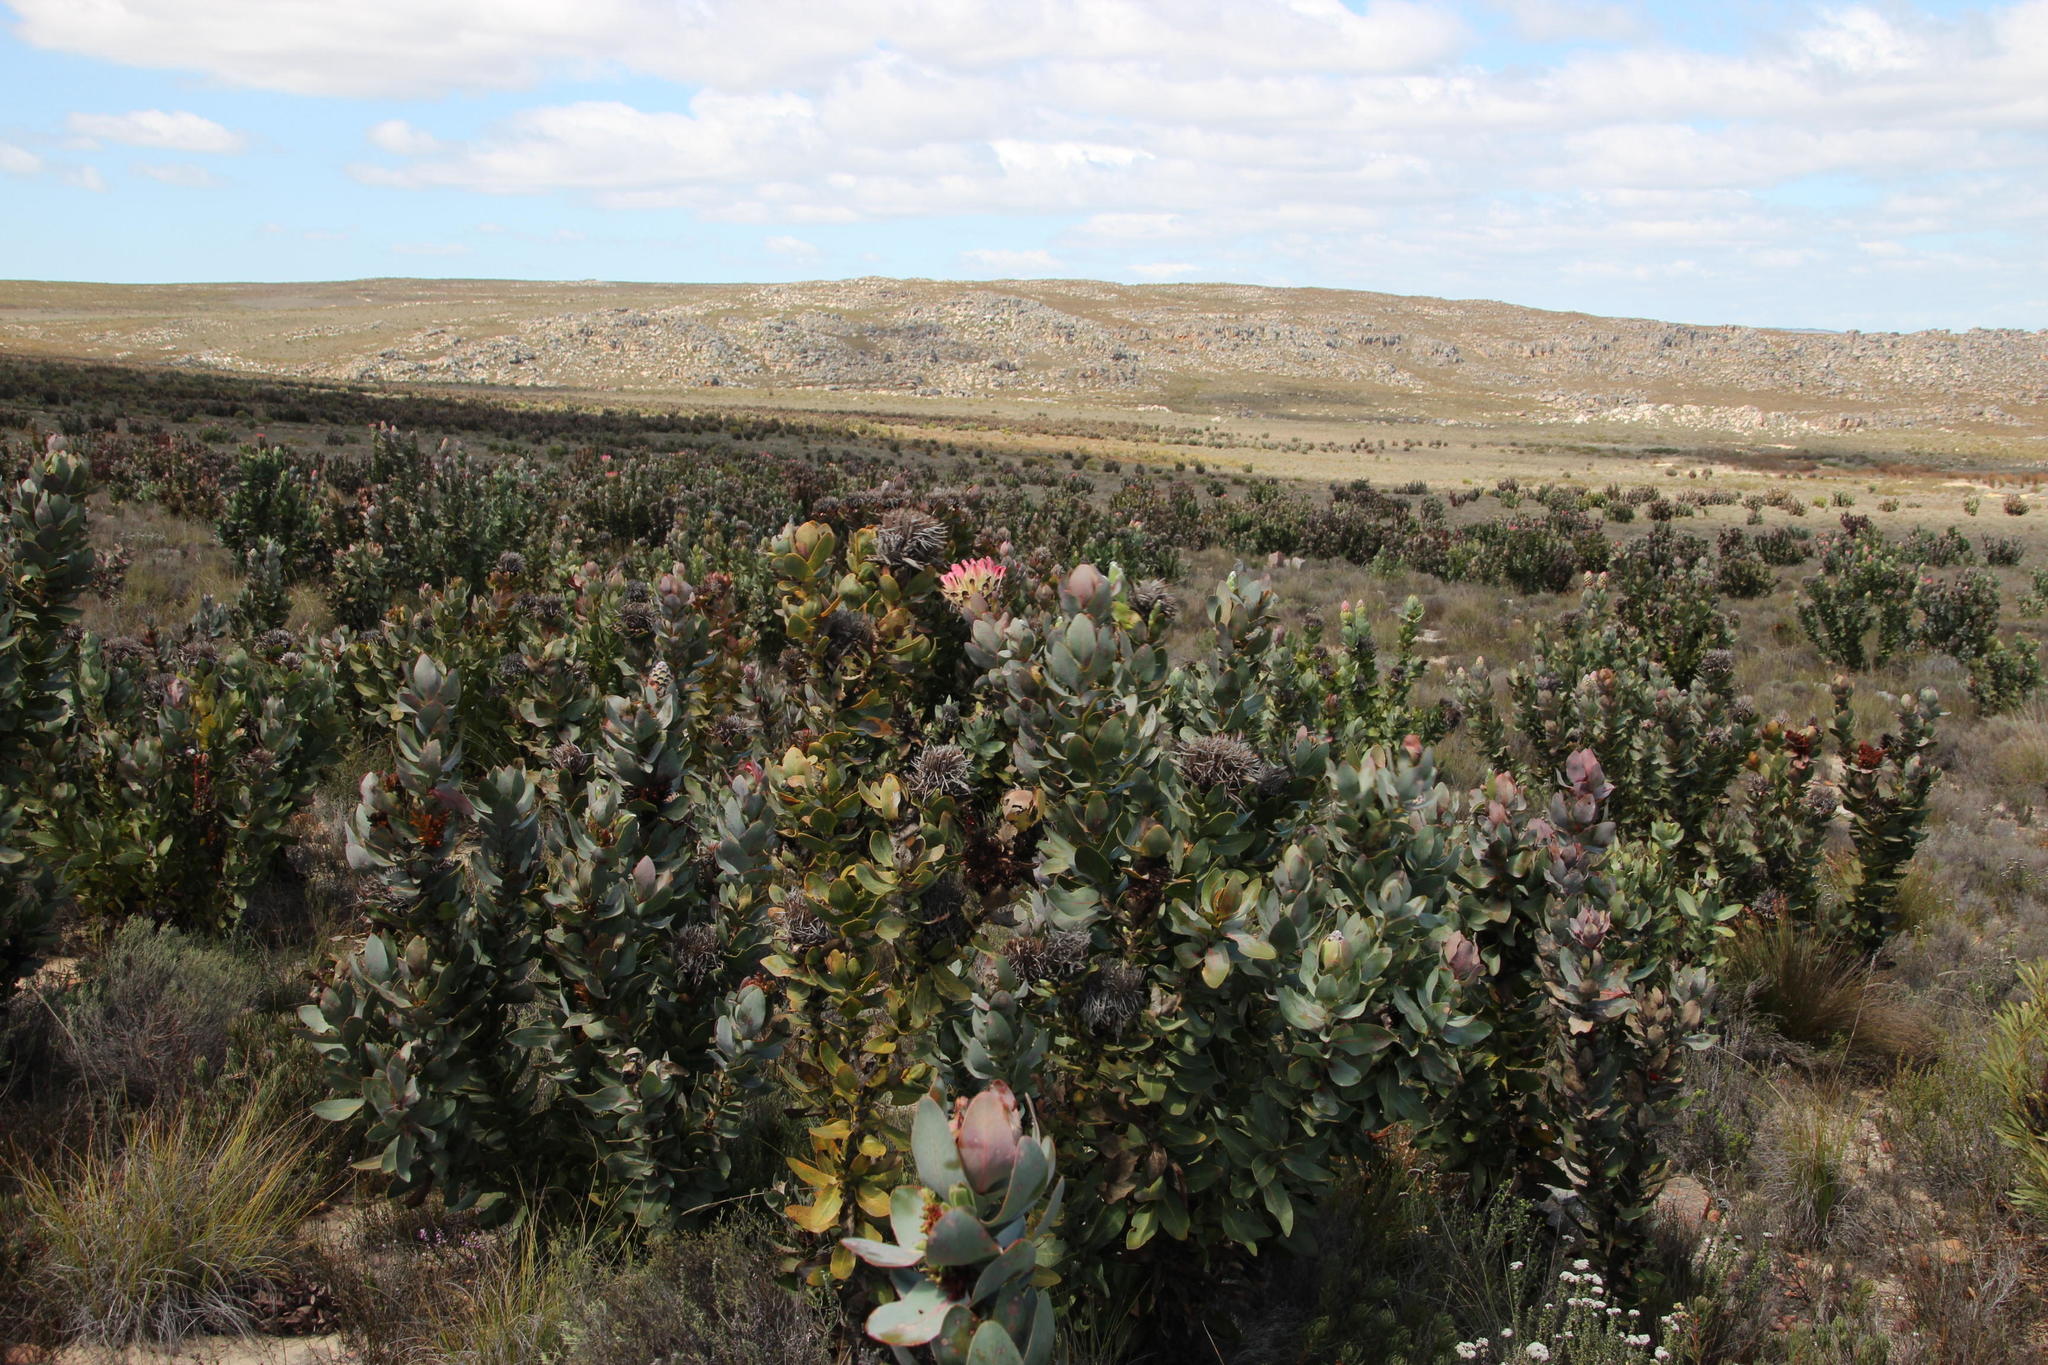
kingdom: Plantae
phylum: Tracheophyta
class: Magnoliopsida
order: Proteales
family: Proteaceae
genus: Protea
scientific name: Protea eximia
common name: Broad-leaved sugarbush
